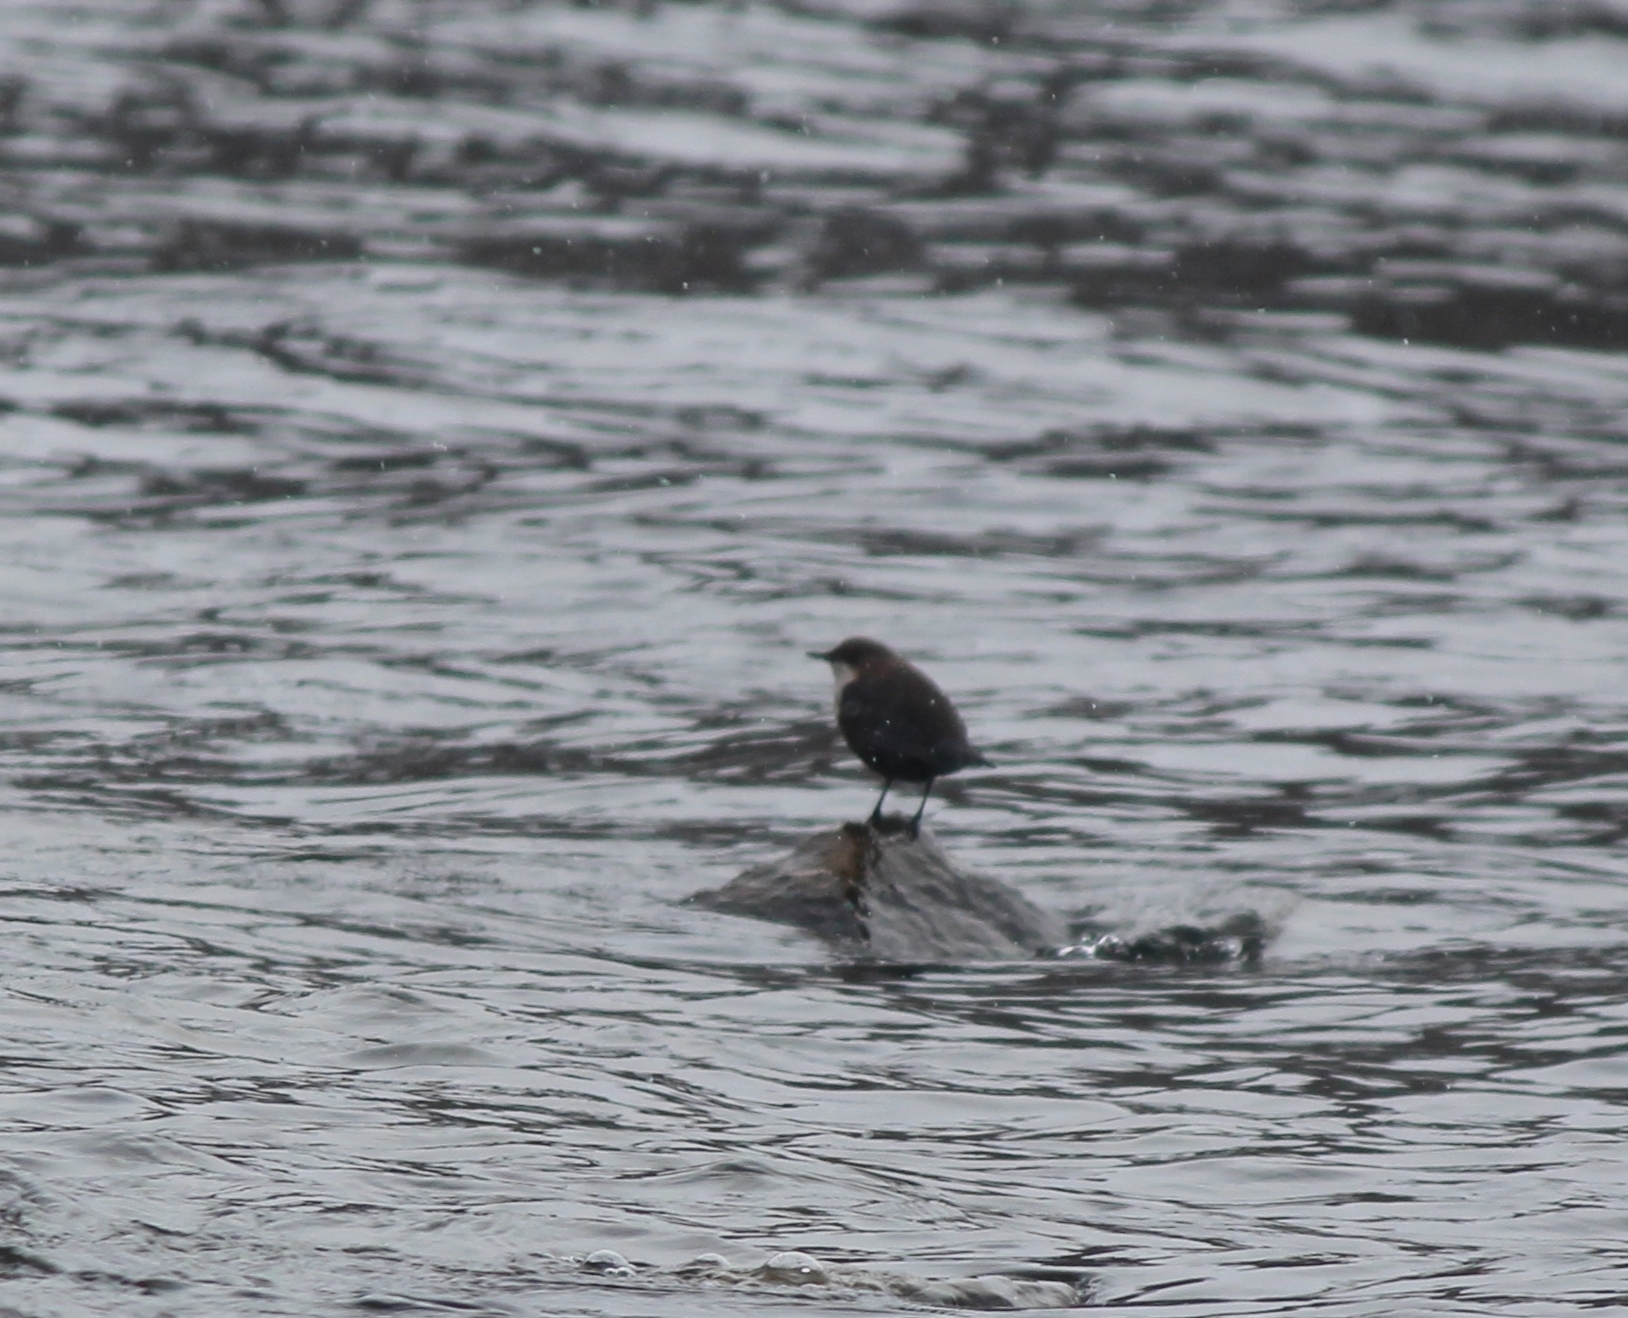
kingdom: Animalia
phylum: Chordata
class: Aves
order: Passeriformes
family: Cinclidae
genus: Cinclus
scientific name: Cinclus cinclus
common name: White-throated dipper
